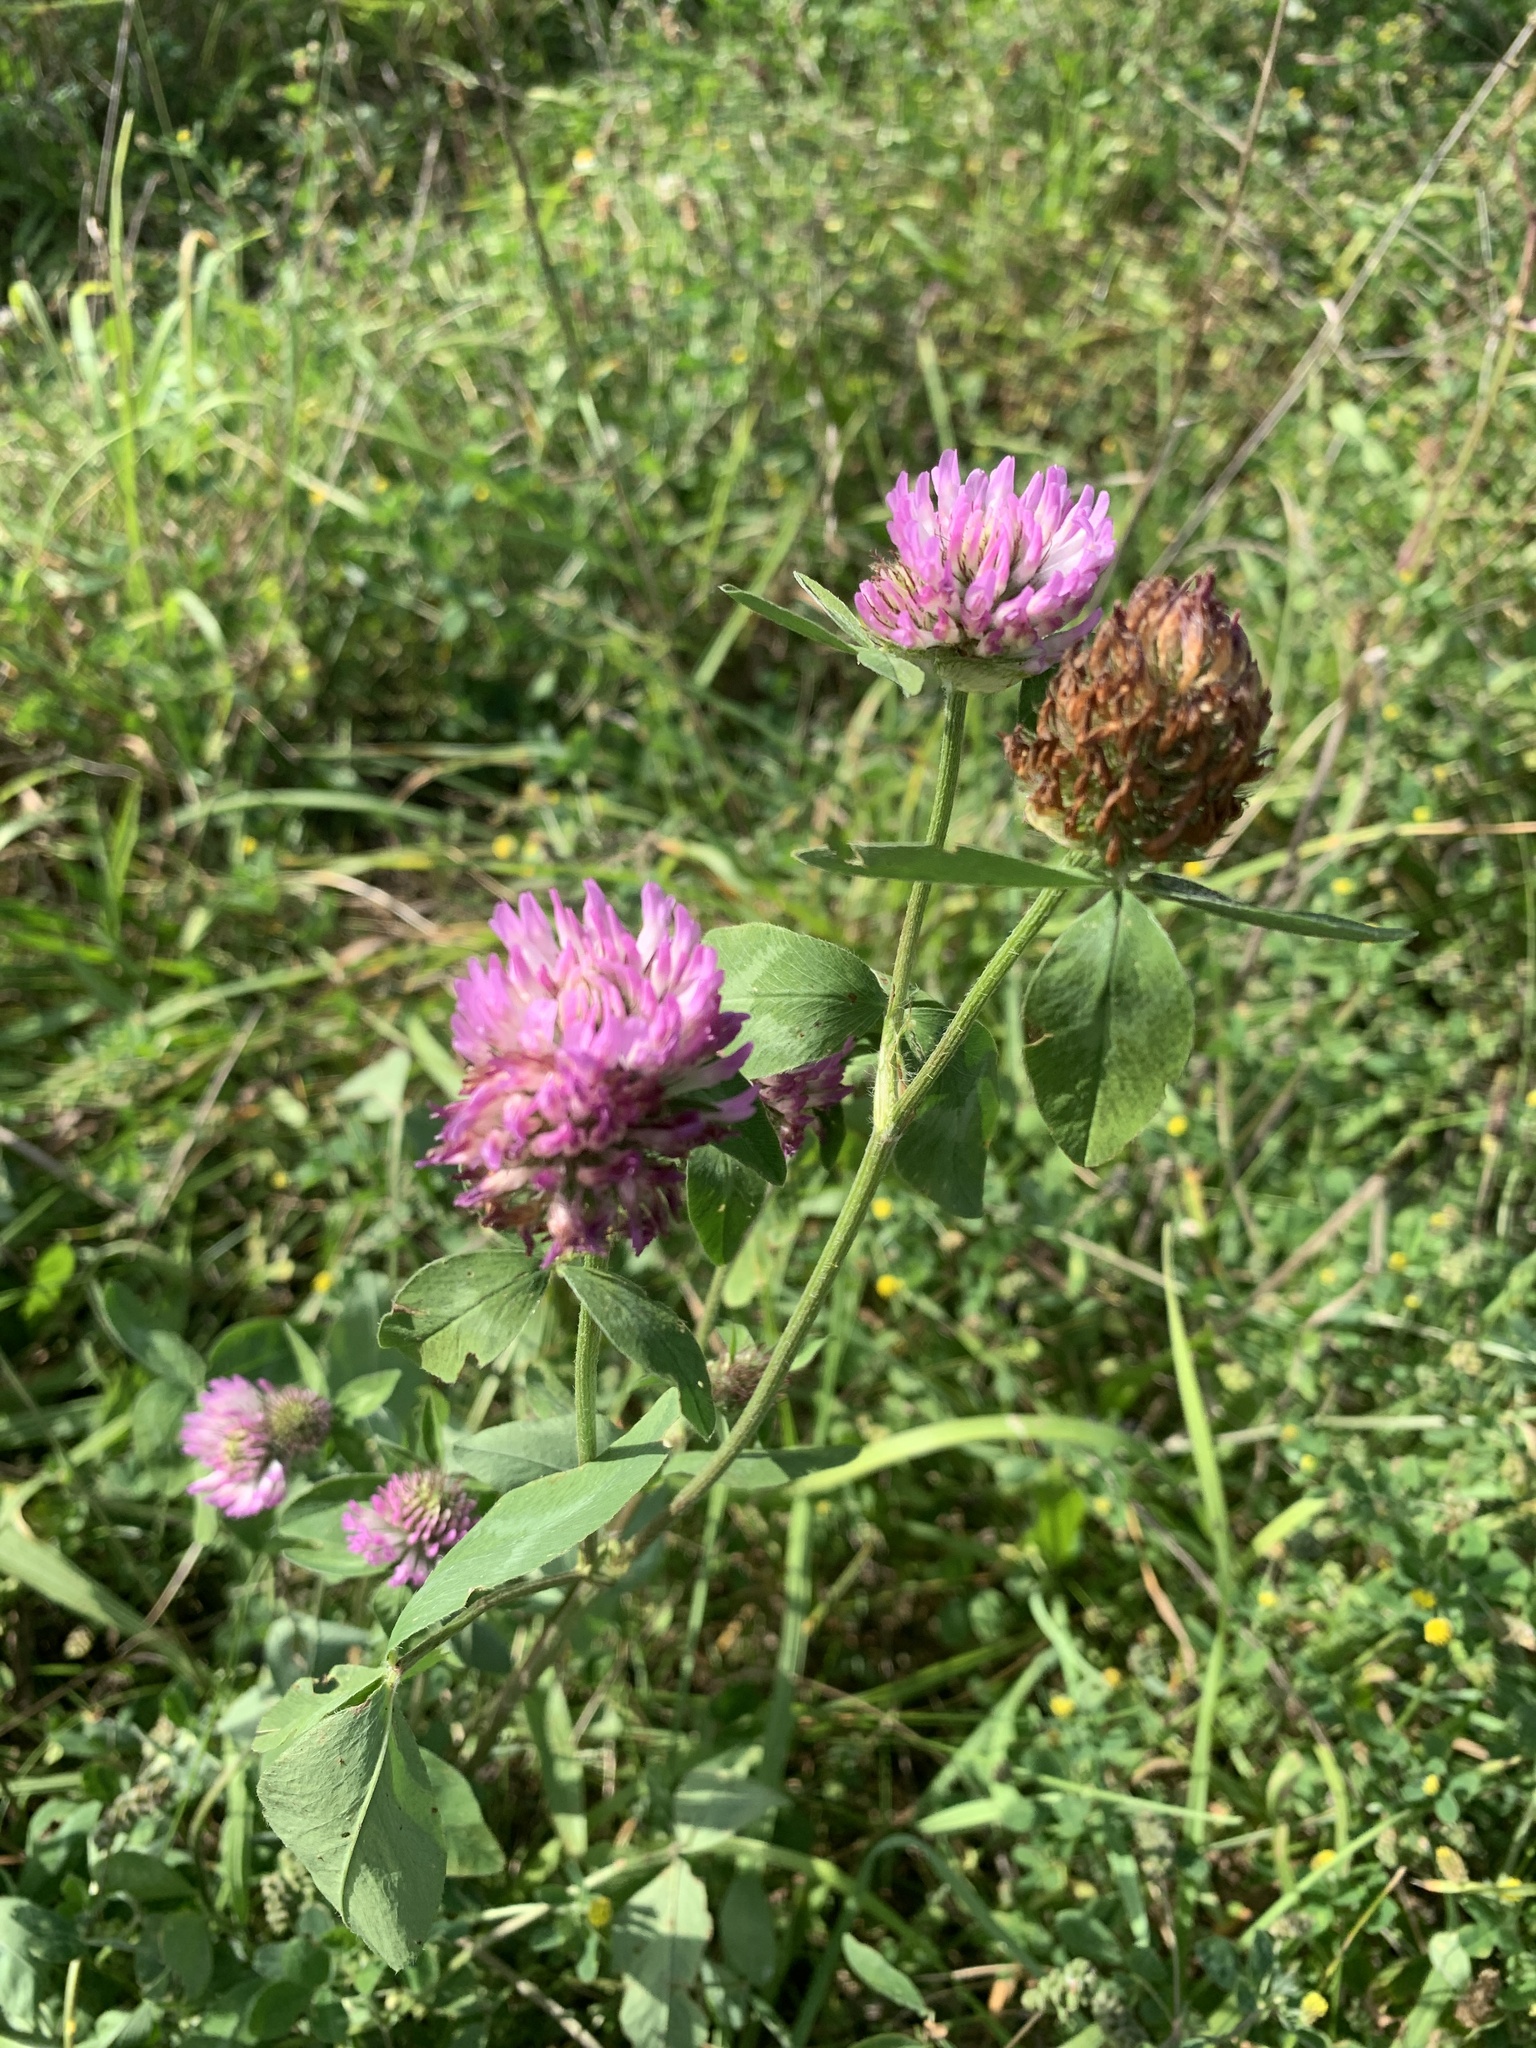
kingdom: Plantae
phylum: Tracheophyta
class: Magnoliopsida
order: Fabales
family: Fabaceae
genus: Trifolium
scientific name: Trifolium pratense
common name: Red clover
